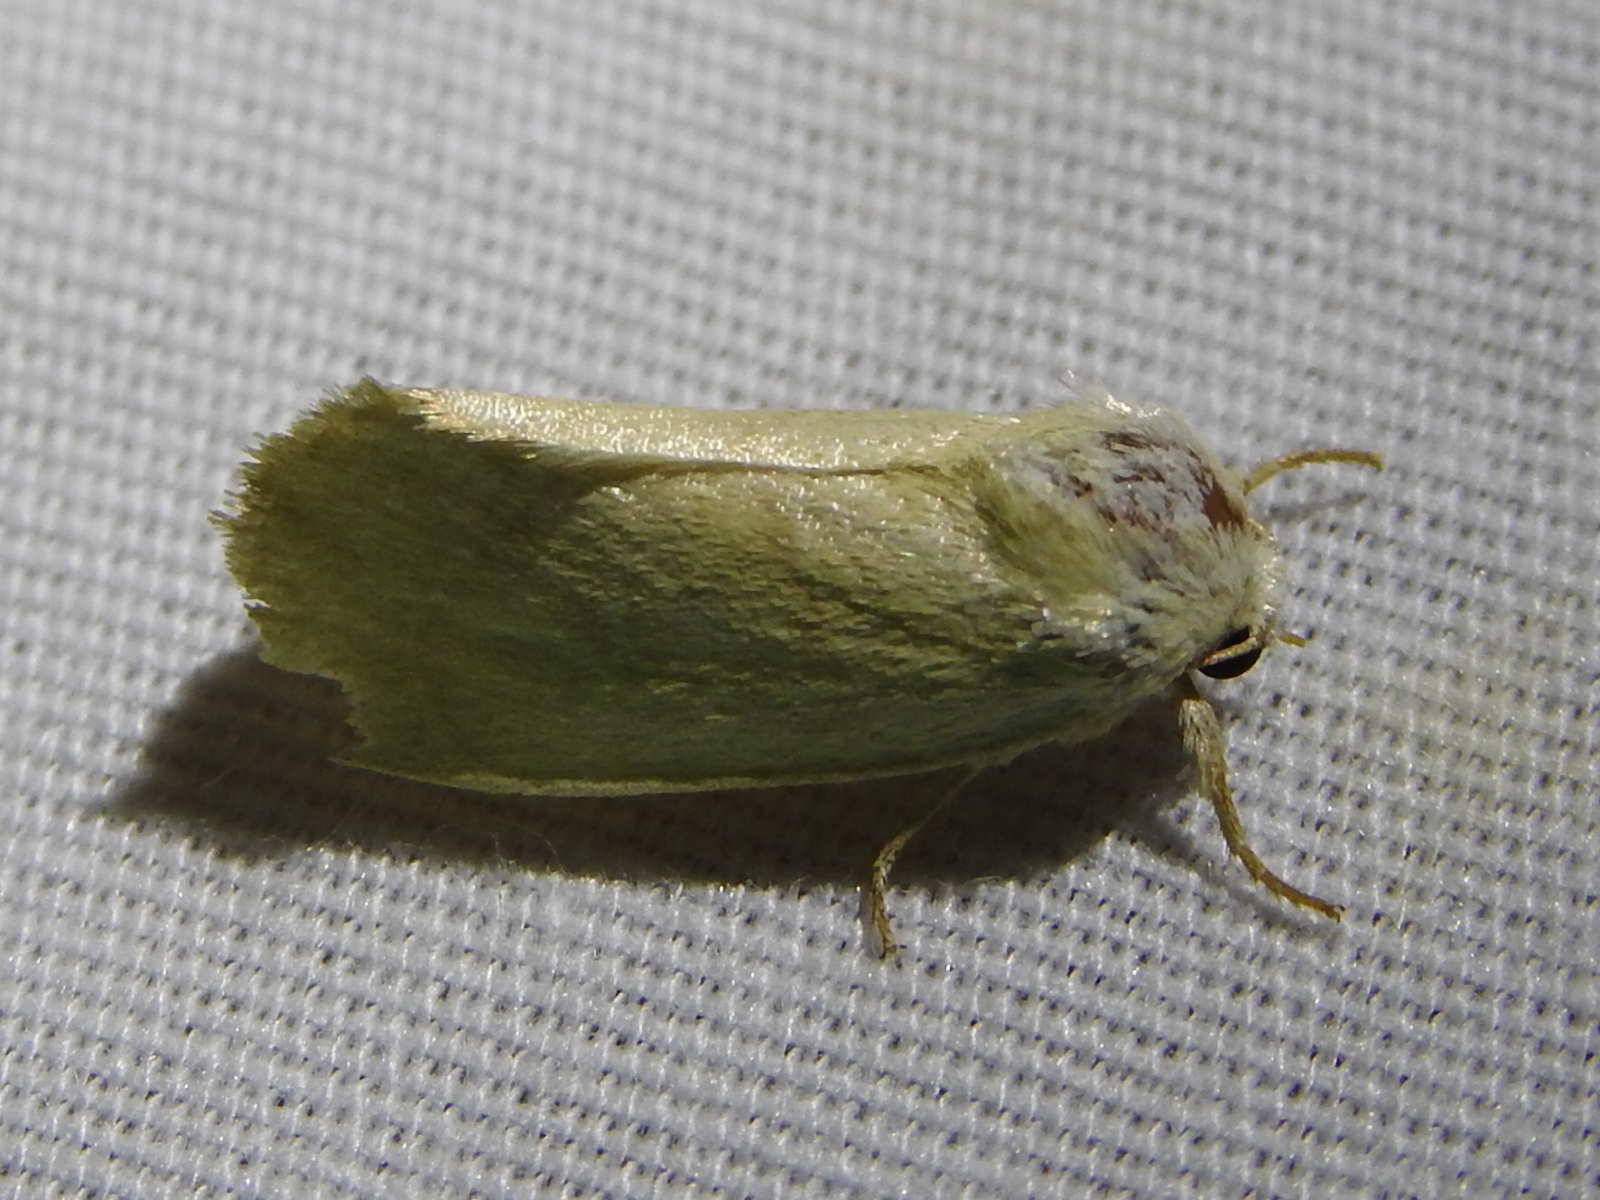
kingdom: Animalia
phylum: Arthropoda
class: Insecta
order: Lepidoptera
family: Noctuidae
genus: Cosmia
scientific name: Cosmia calami
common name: American dun-bar moth
